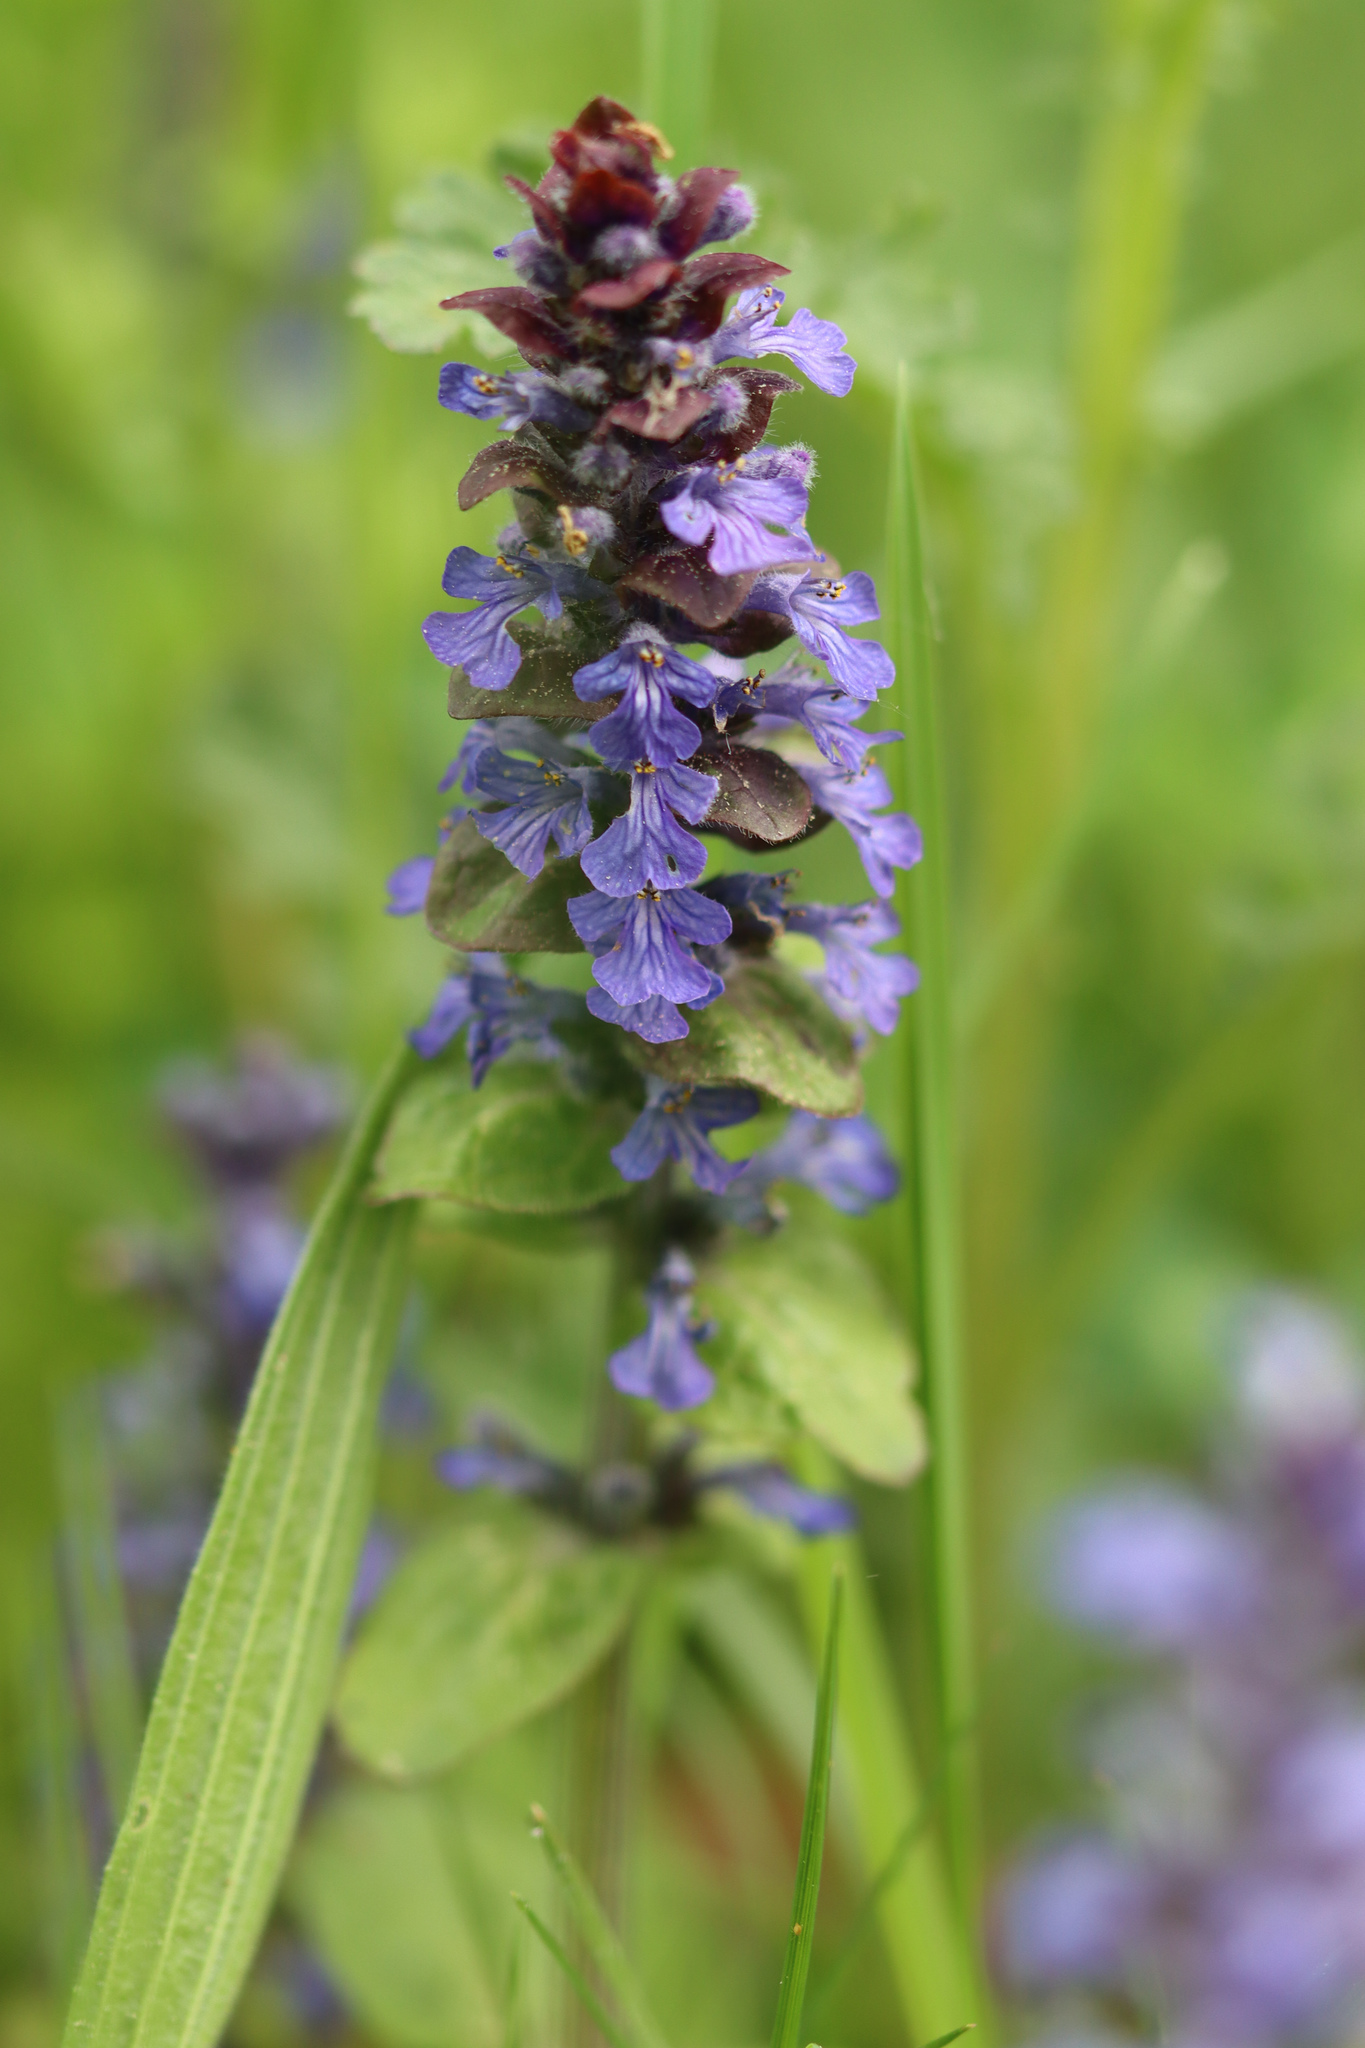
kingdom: Plantae
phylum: Tracheophyta
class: Magnoliopsida
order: Lamiales
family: Lamiaceae
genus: Ajuga
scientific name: Ajuga reptans
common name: Bugle
